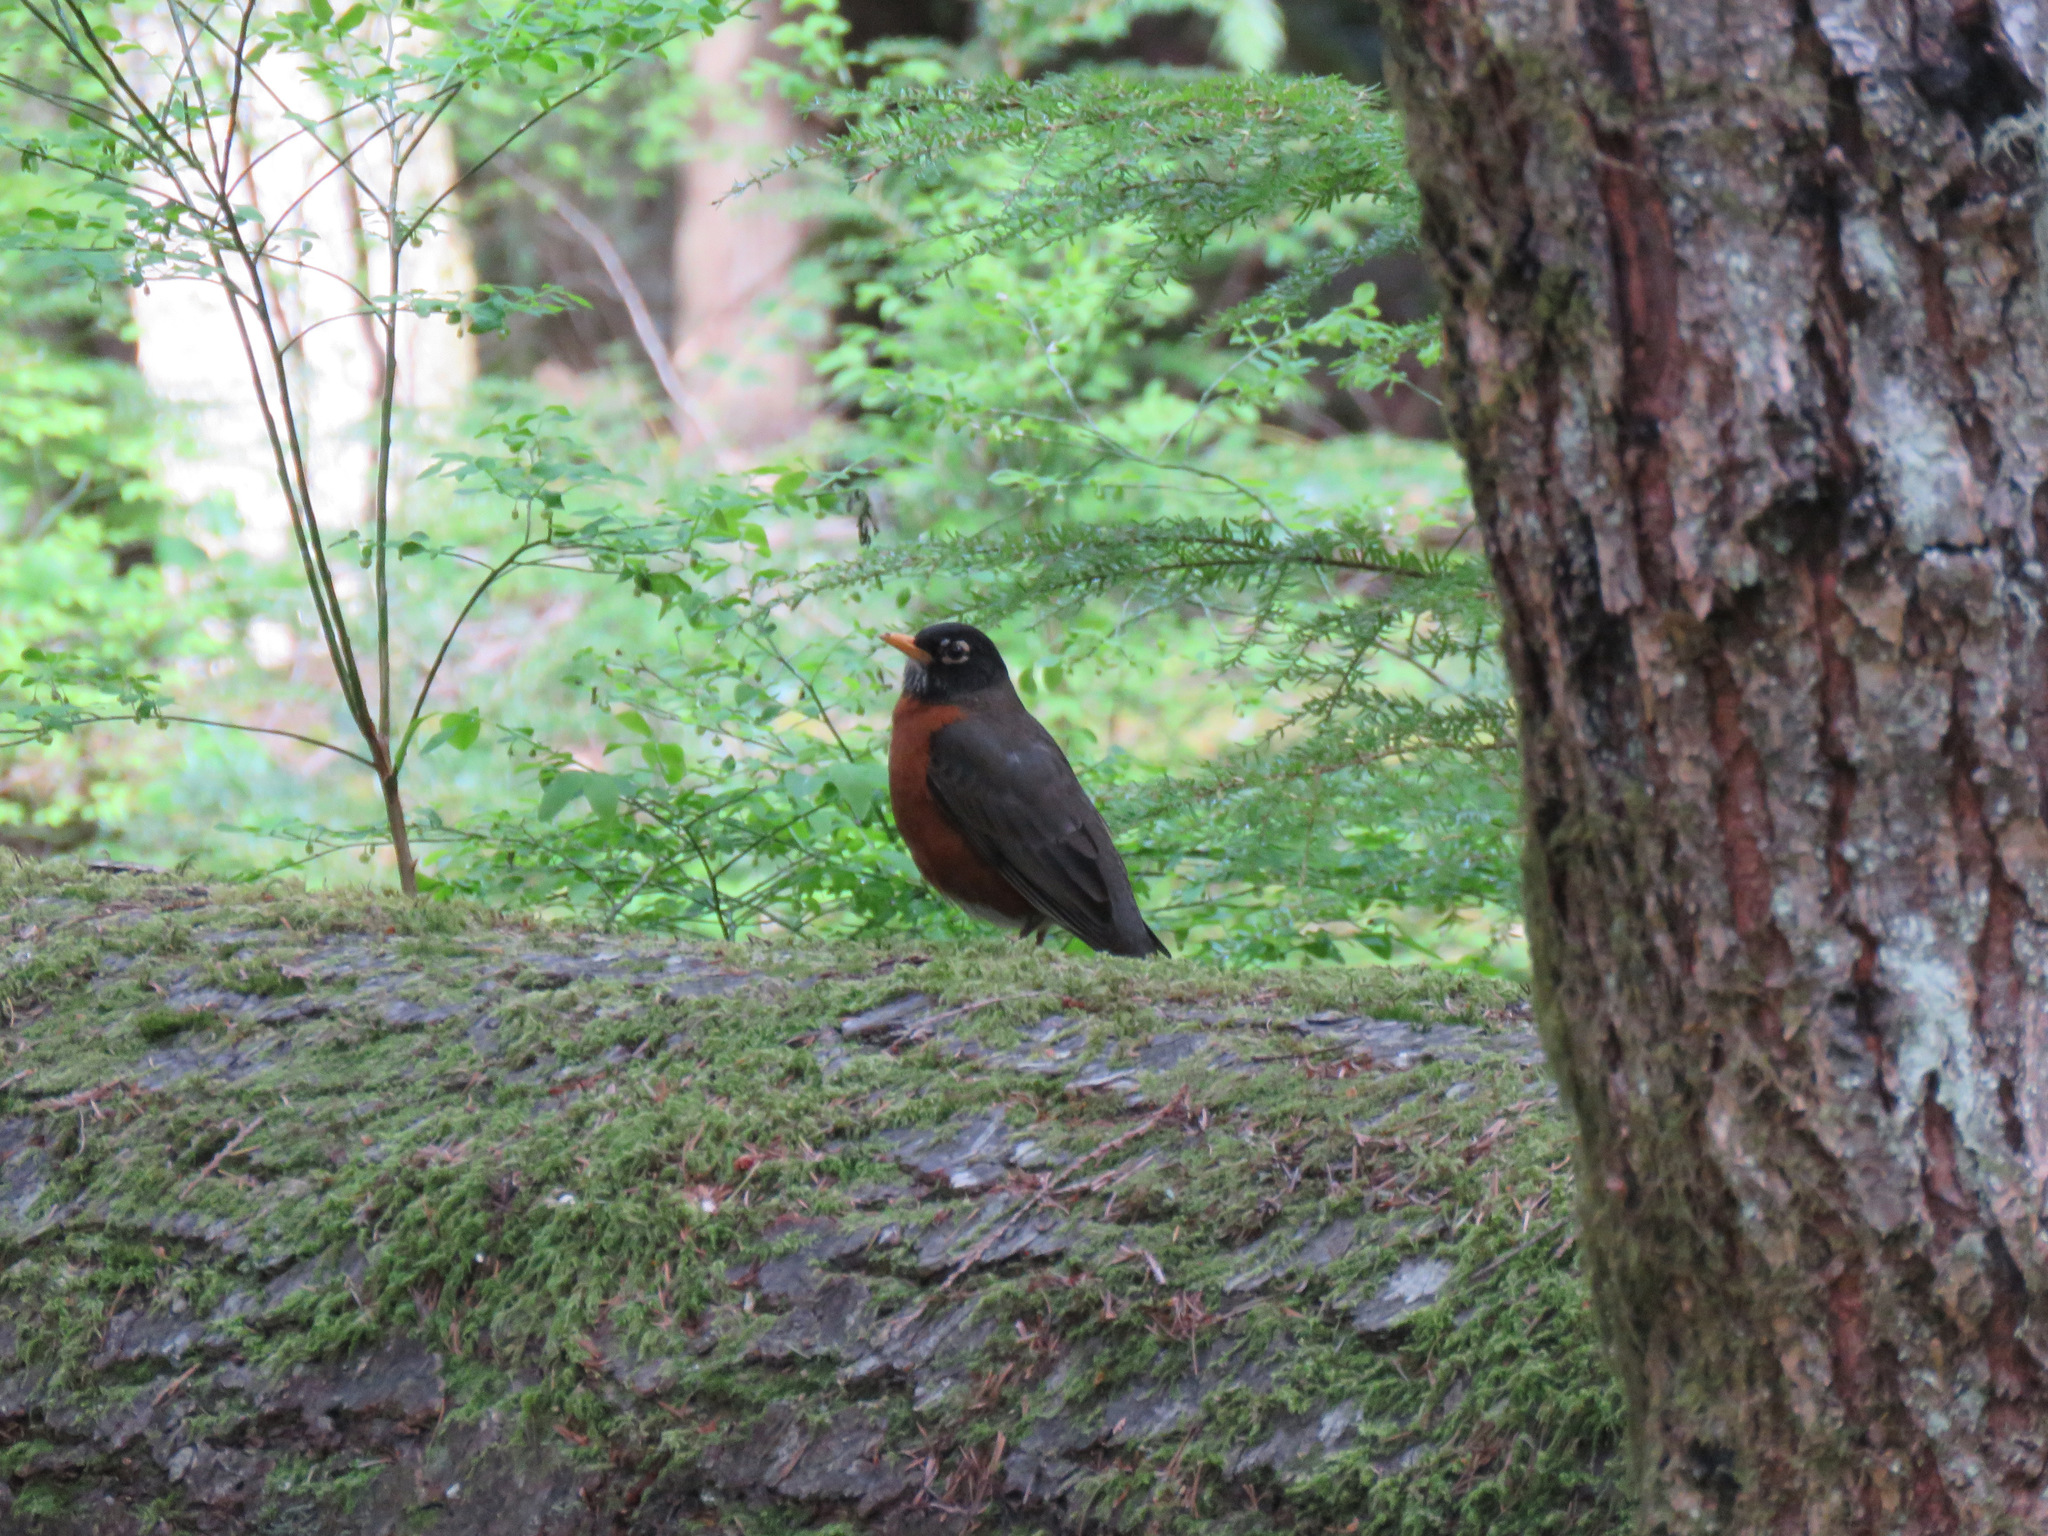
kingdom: Animalia
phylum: Chordata
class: Aves
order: Passeriformes
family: Turdidae
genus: Turdus
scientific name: Turdus migratorius
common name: American robin
